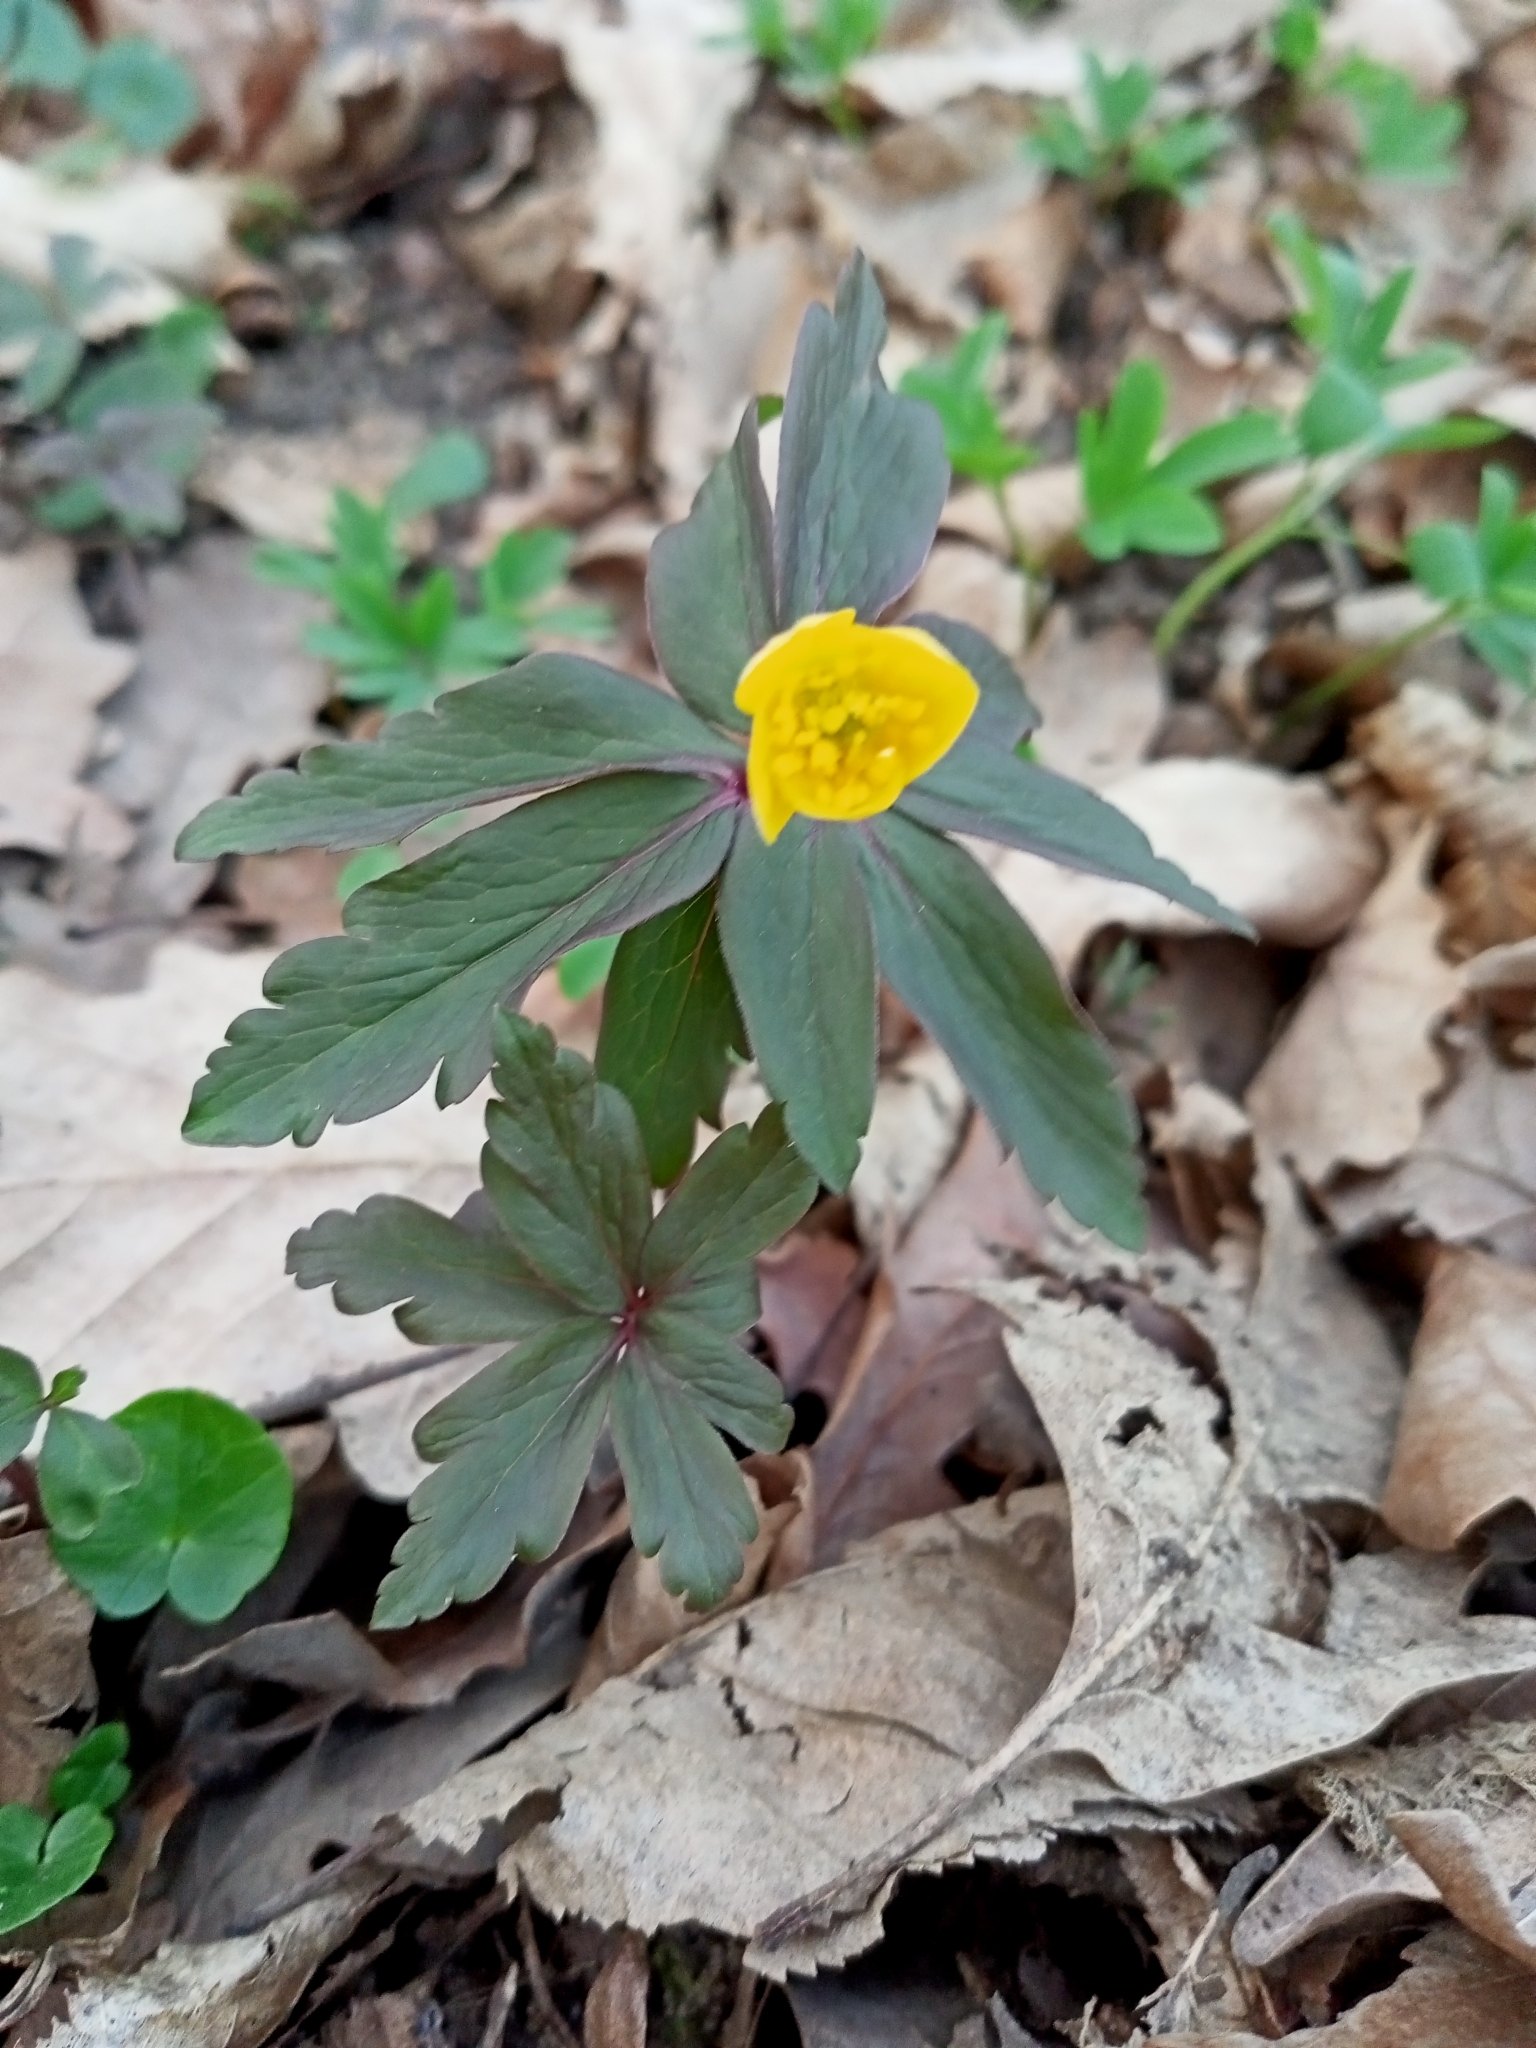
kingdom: Plantae
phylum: Tracheophyta
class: Magnoliopsida
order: Ranunculales
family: Ranunculaceae
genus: Anemone
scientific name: Anemone ranunculoides
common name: Yellow anemone
